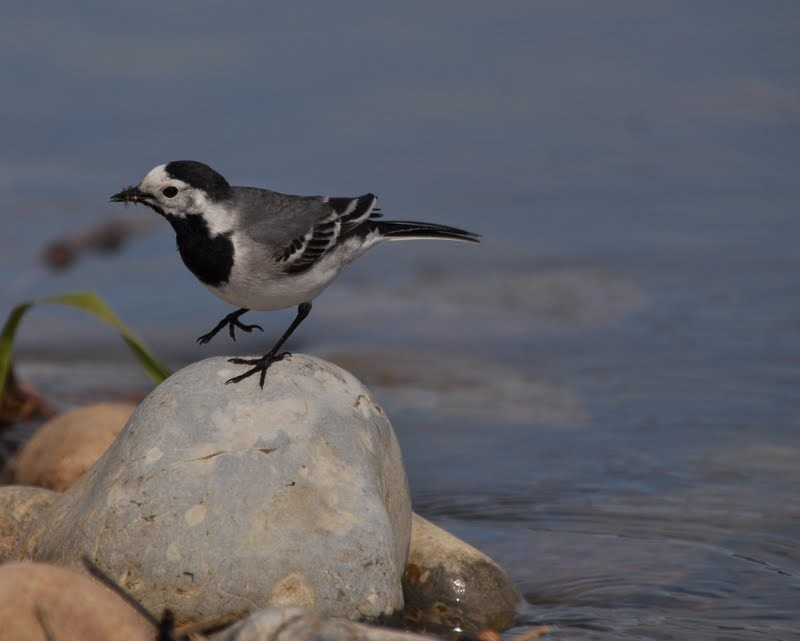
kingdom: Animalia
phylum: Chordata
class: Aves
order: Passeriformes
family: Motacillidae
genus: Motacilla
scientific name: Motacilla alba
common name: White wagtail
